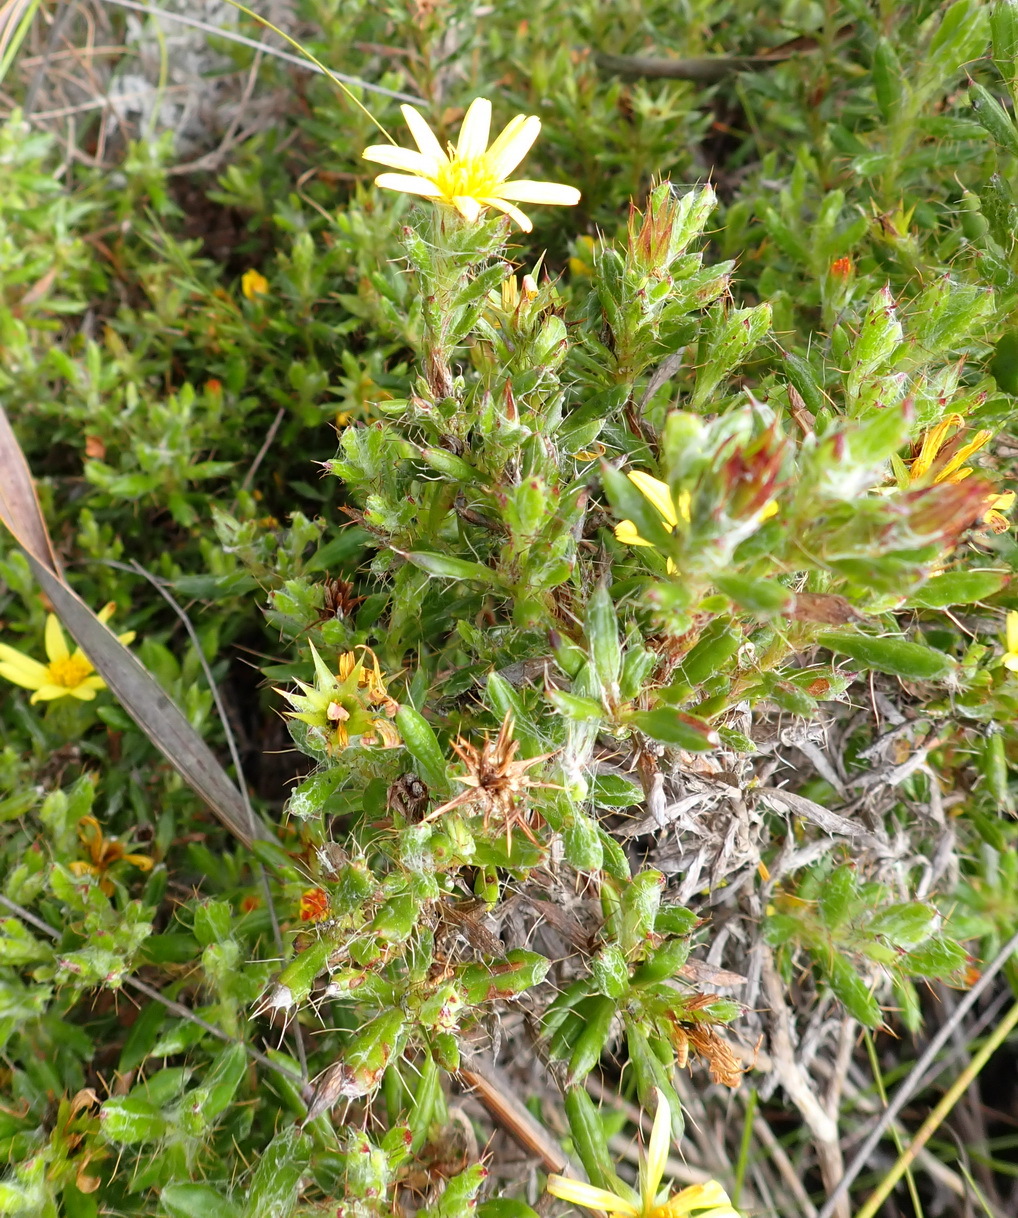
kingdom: Plantae
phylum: Tracheophyta
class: Magnoliopsida
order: Asterales
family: Asteraceae
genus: Cullumia
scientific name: Cullumia aculeata
